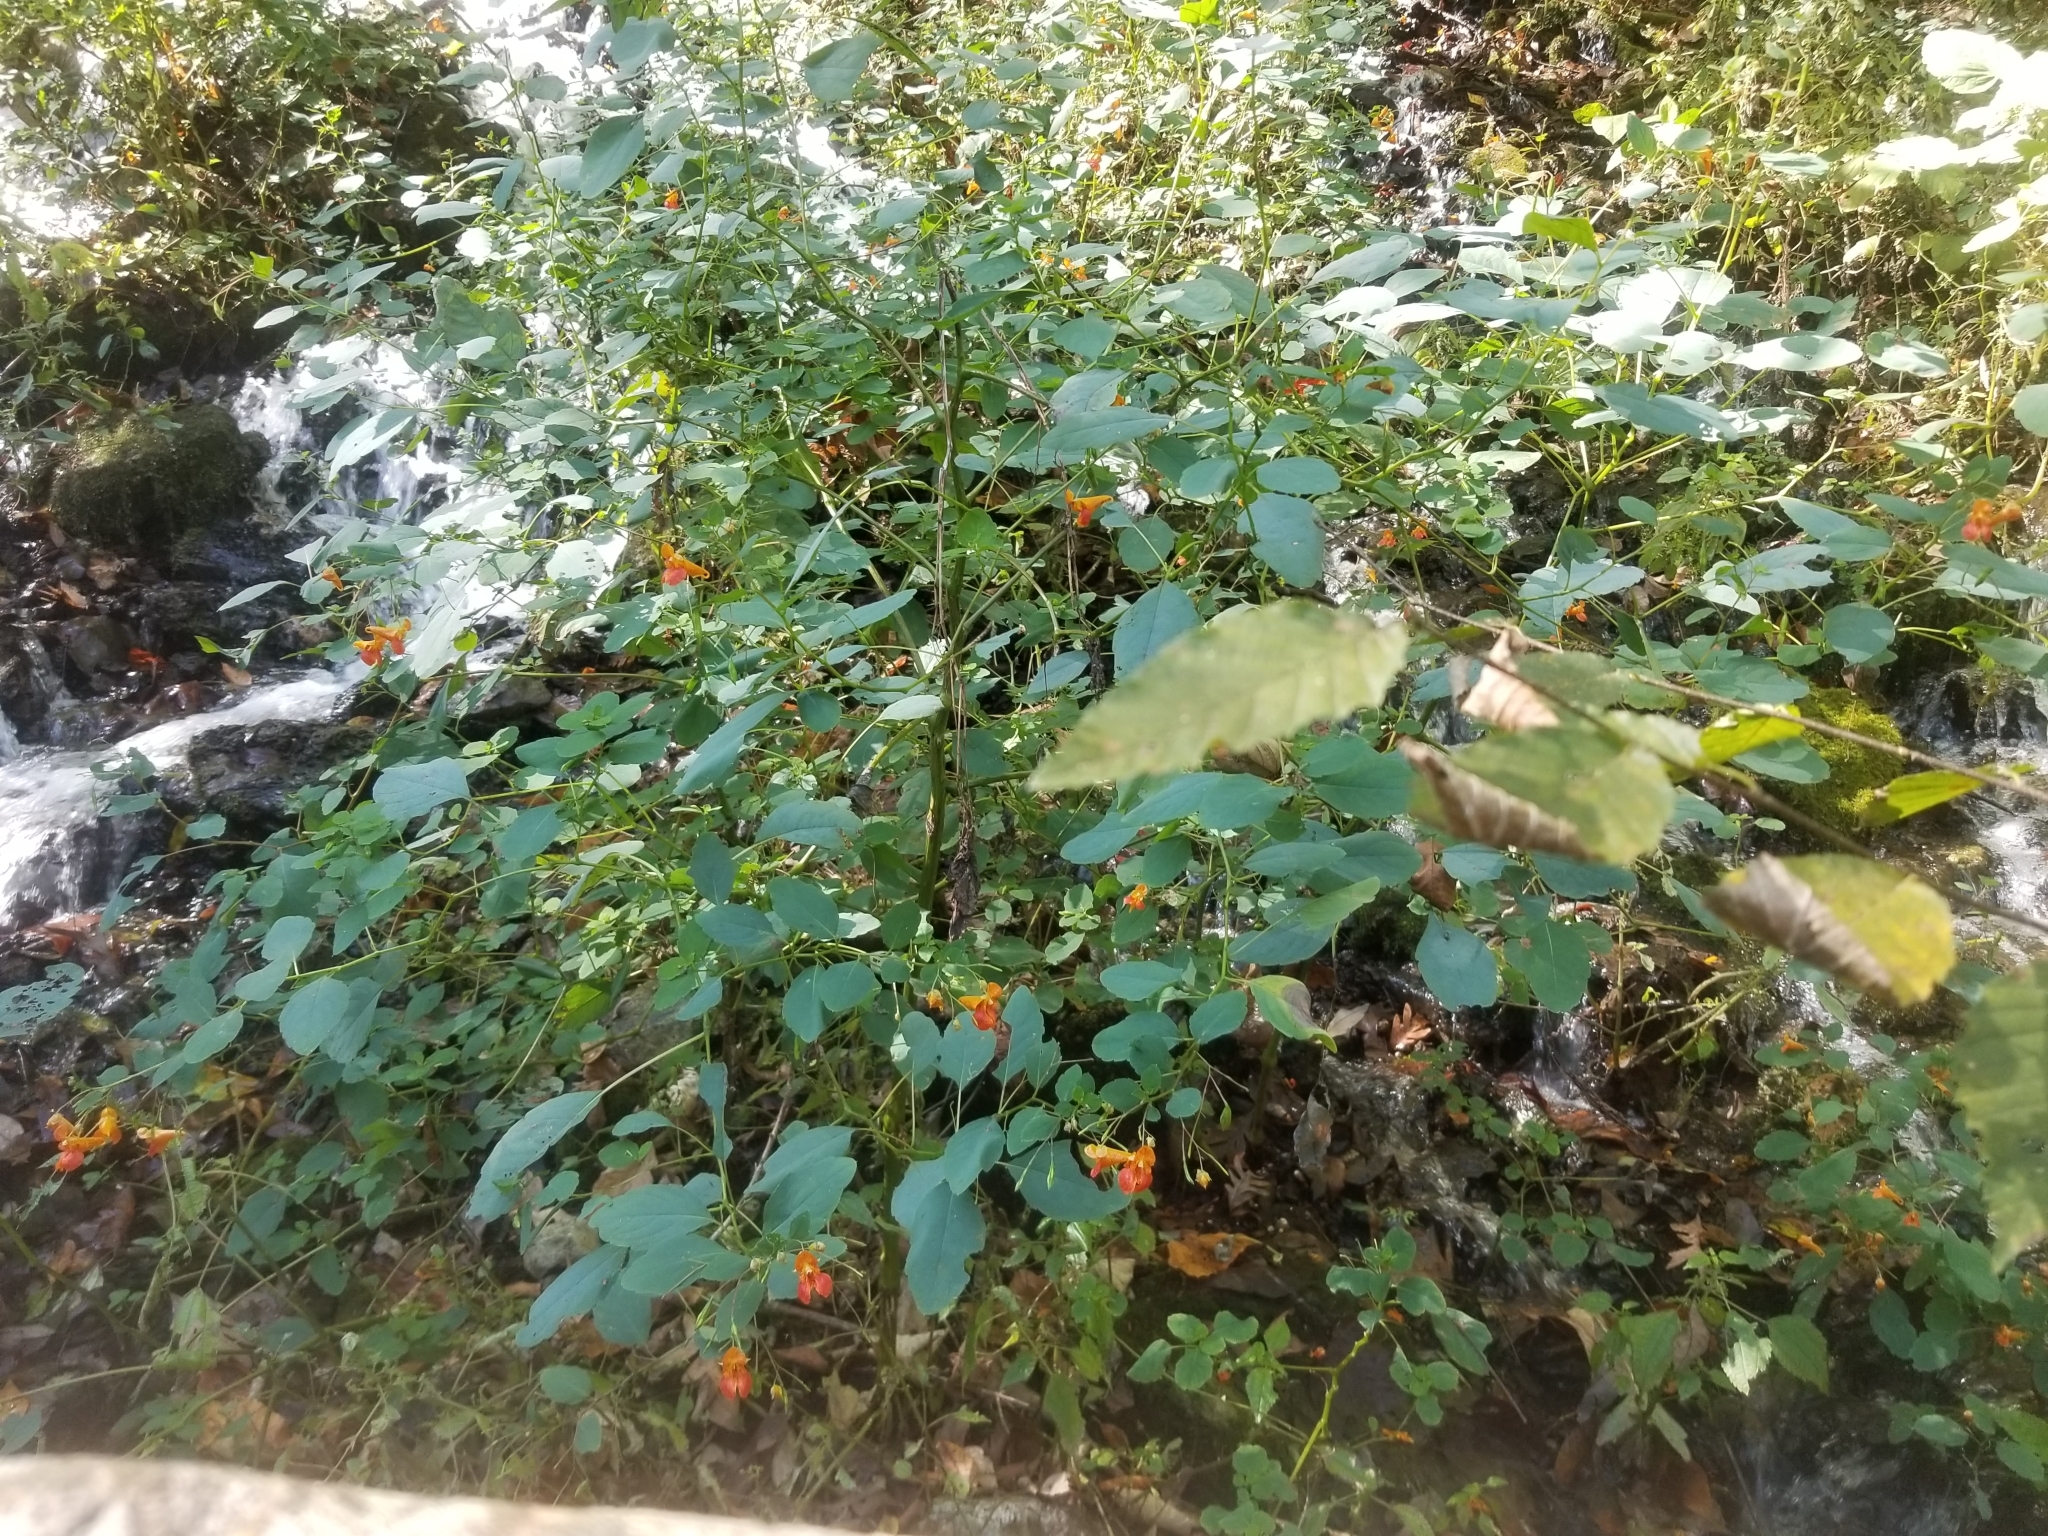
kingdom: Plantae
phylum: Tracheophyta
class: Magnoliopsida
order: Ericales
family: Balsaminaceae
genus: Impatiens
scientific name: Impatiens capensis
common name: Orange balsam
